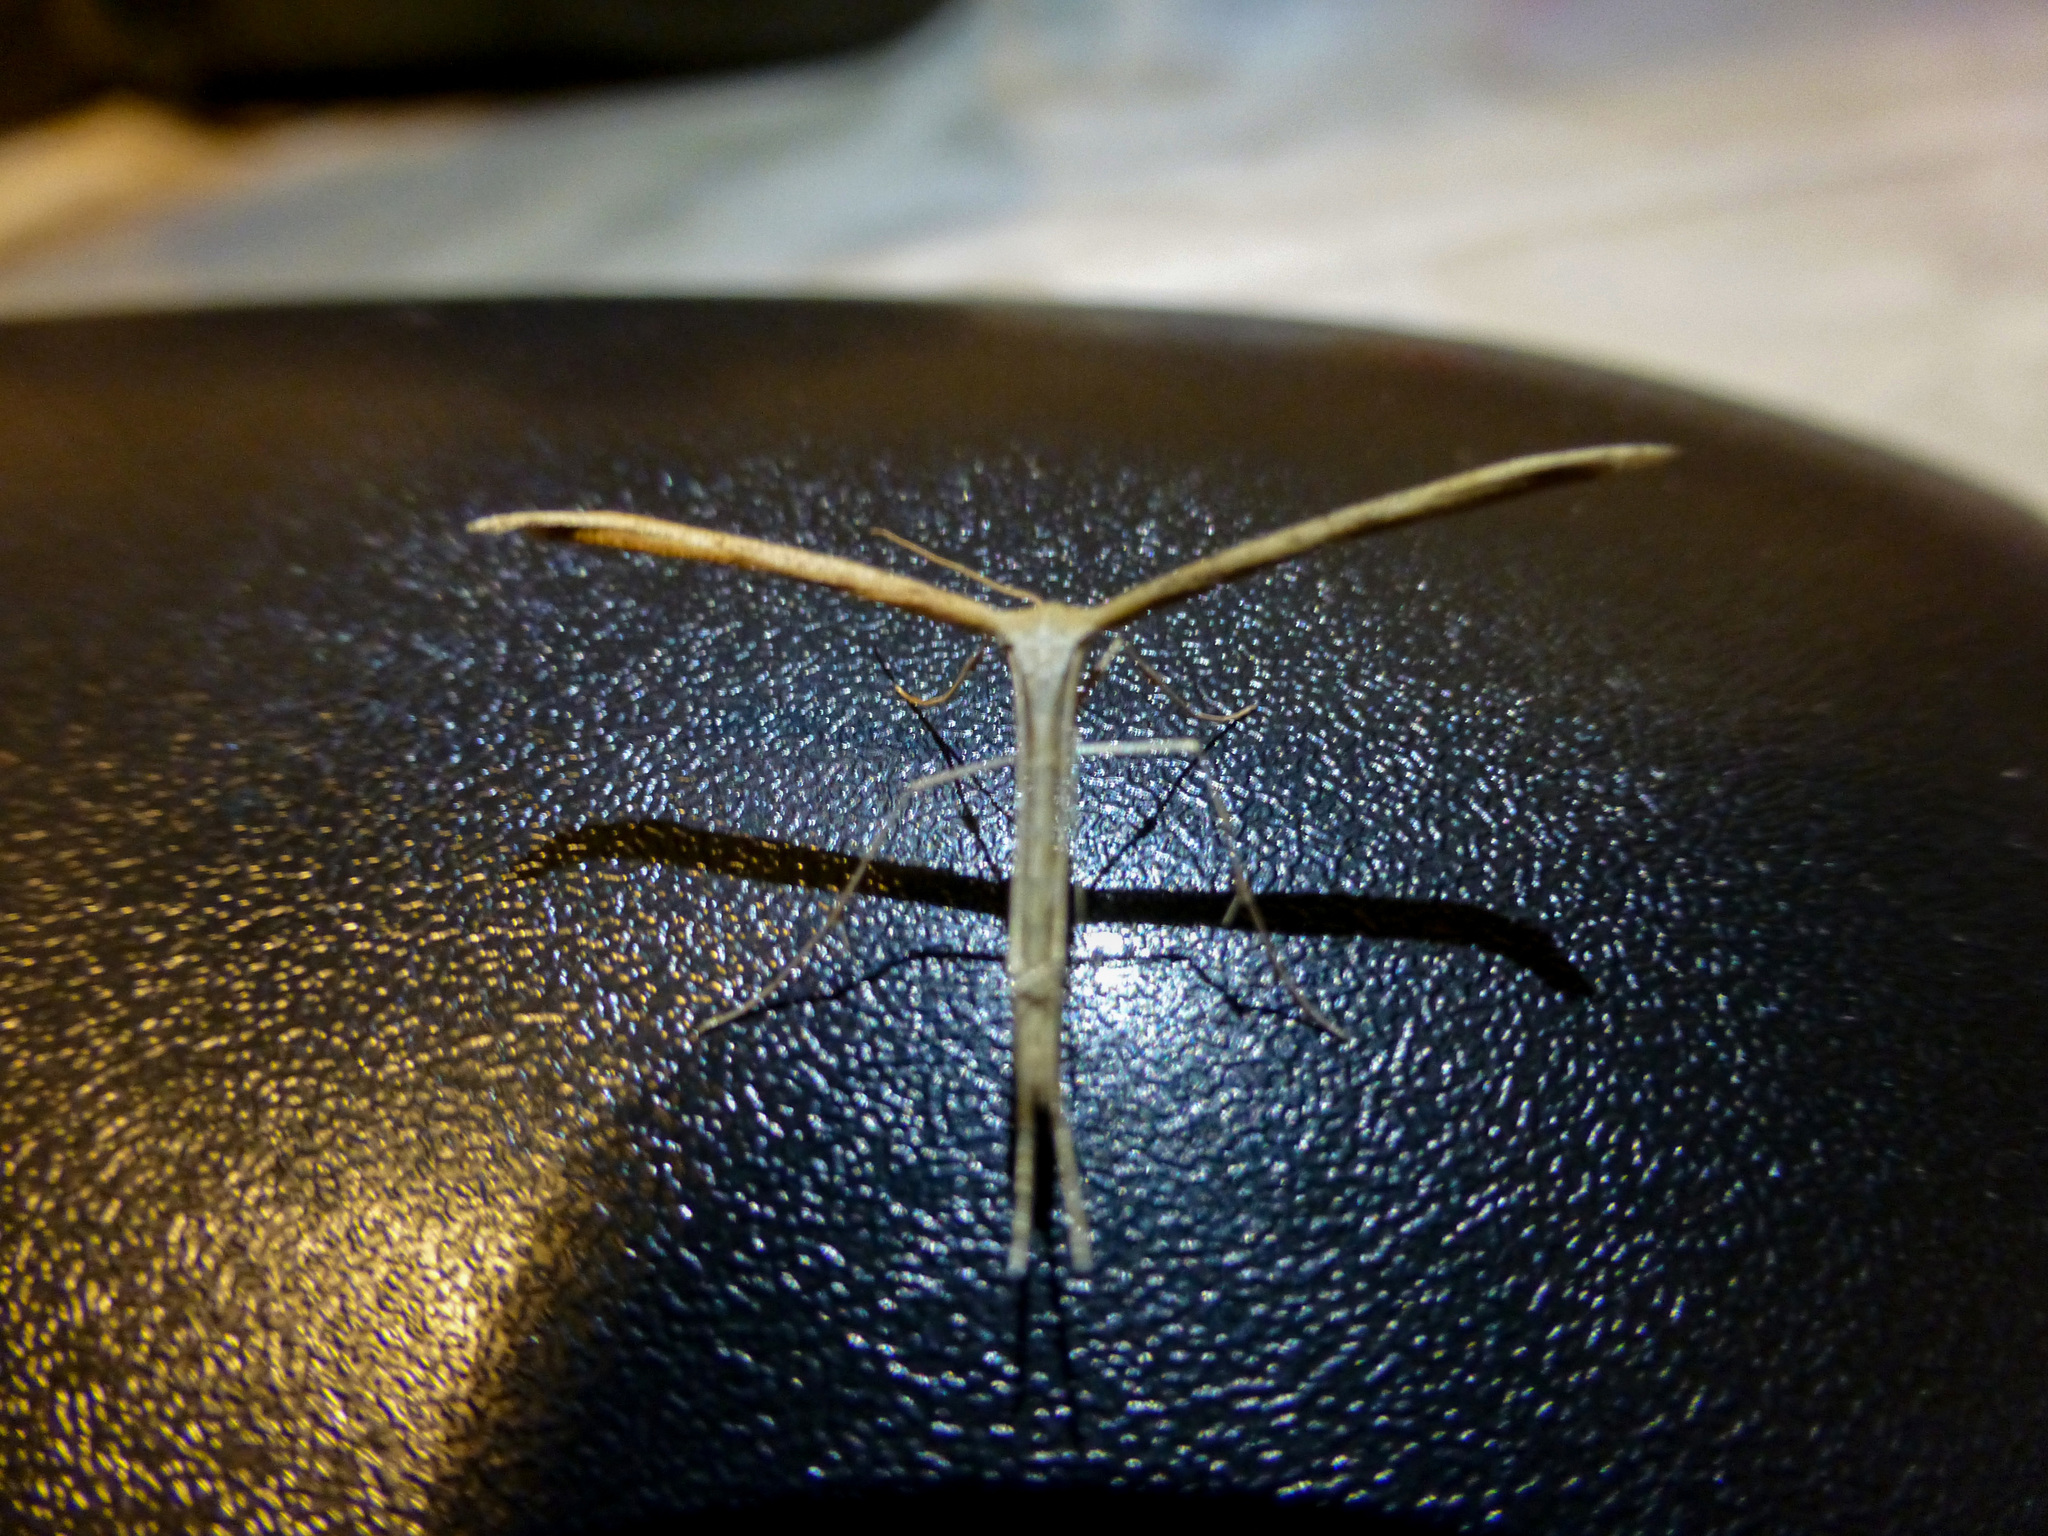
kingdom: Animalia
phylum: Arthropoda
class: Insecta
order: Lepidoptera
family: Pterophoridae
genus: Emmelina
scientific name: Emmelina monodactyla
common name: Common plume
